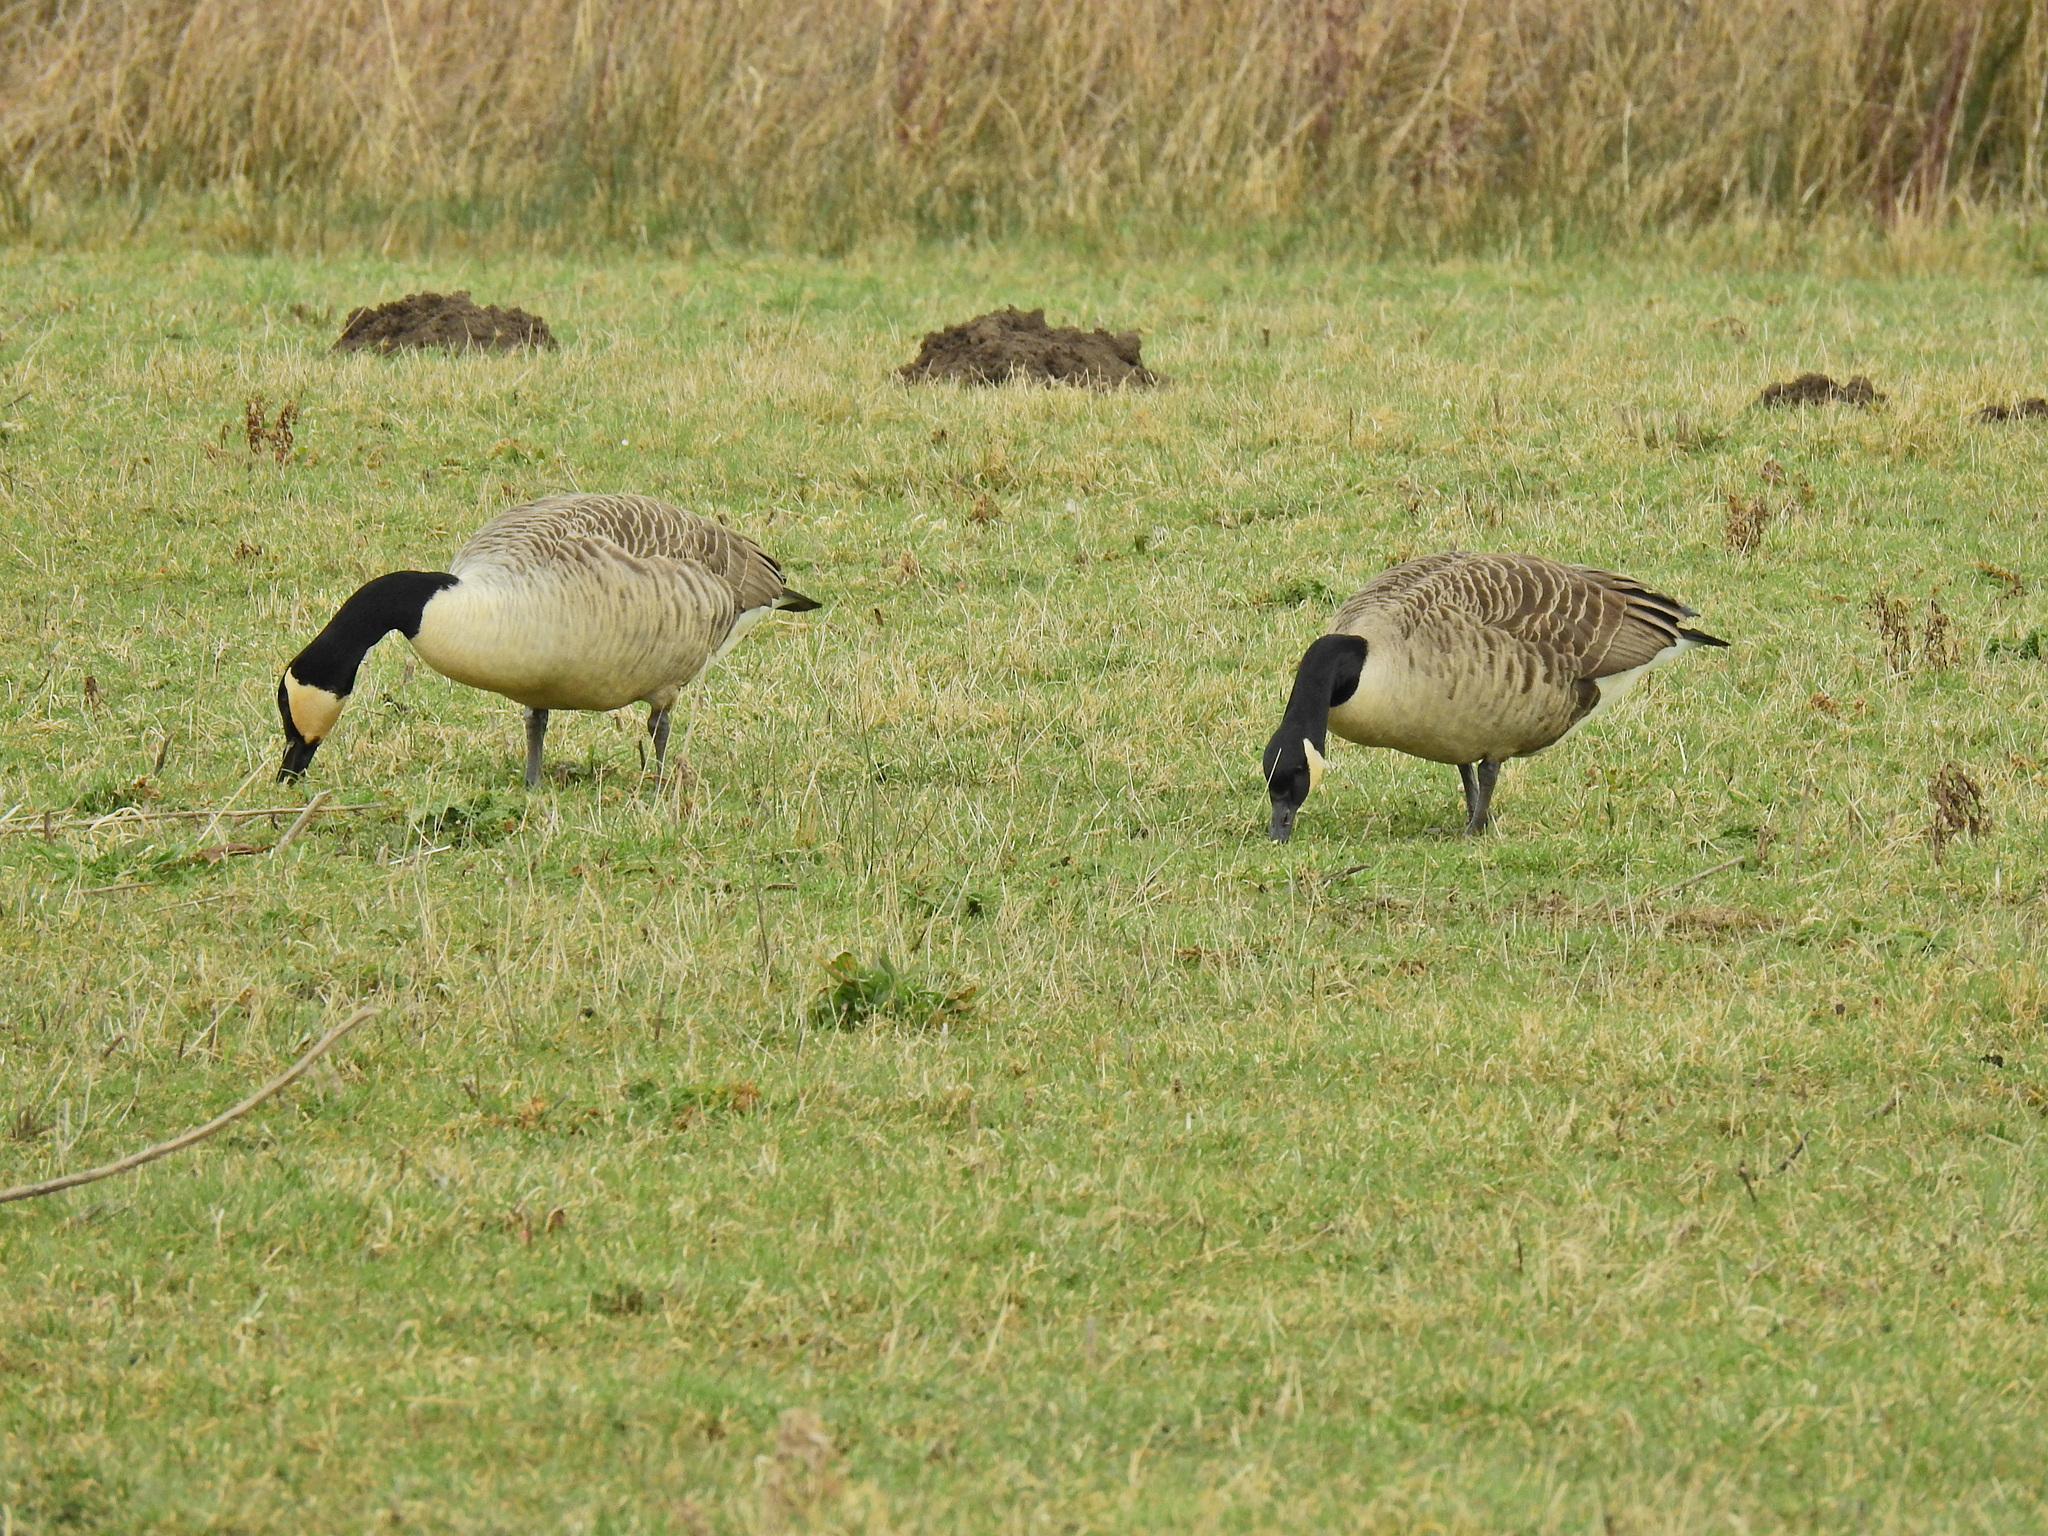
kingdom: Animalia
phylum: Chordata
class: Aves
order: Anseriformes
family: Anatidae
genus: Branta
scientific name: Branta canadensis
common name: Canada goose
